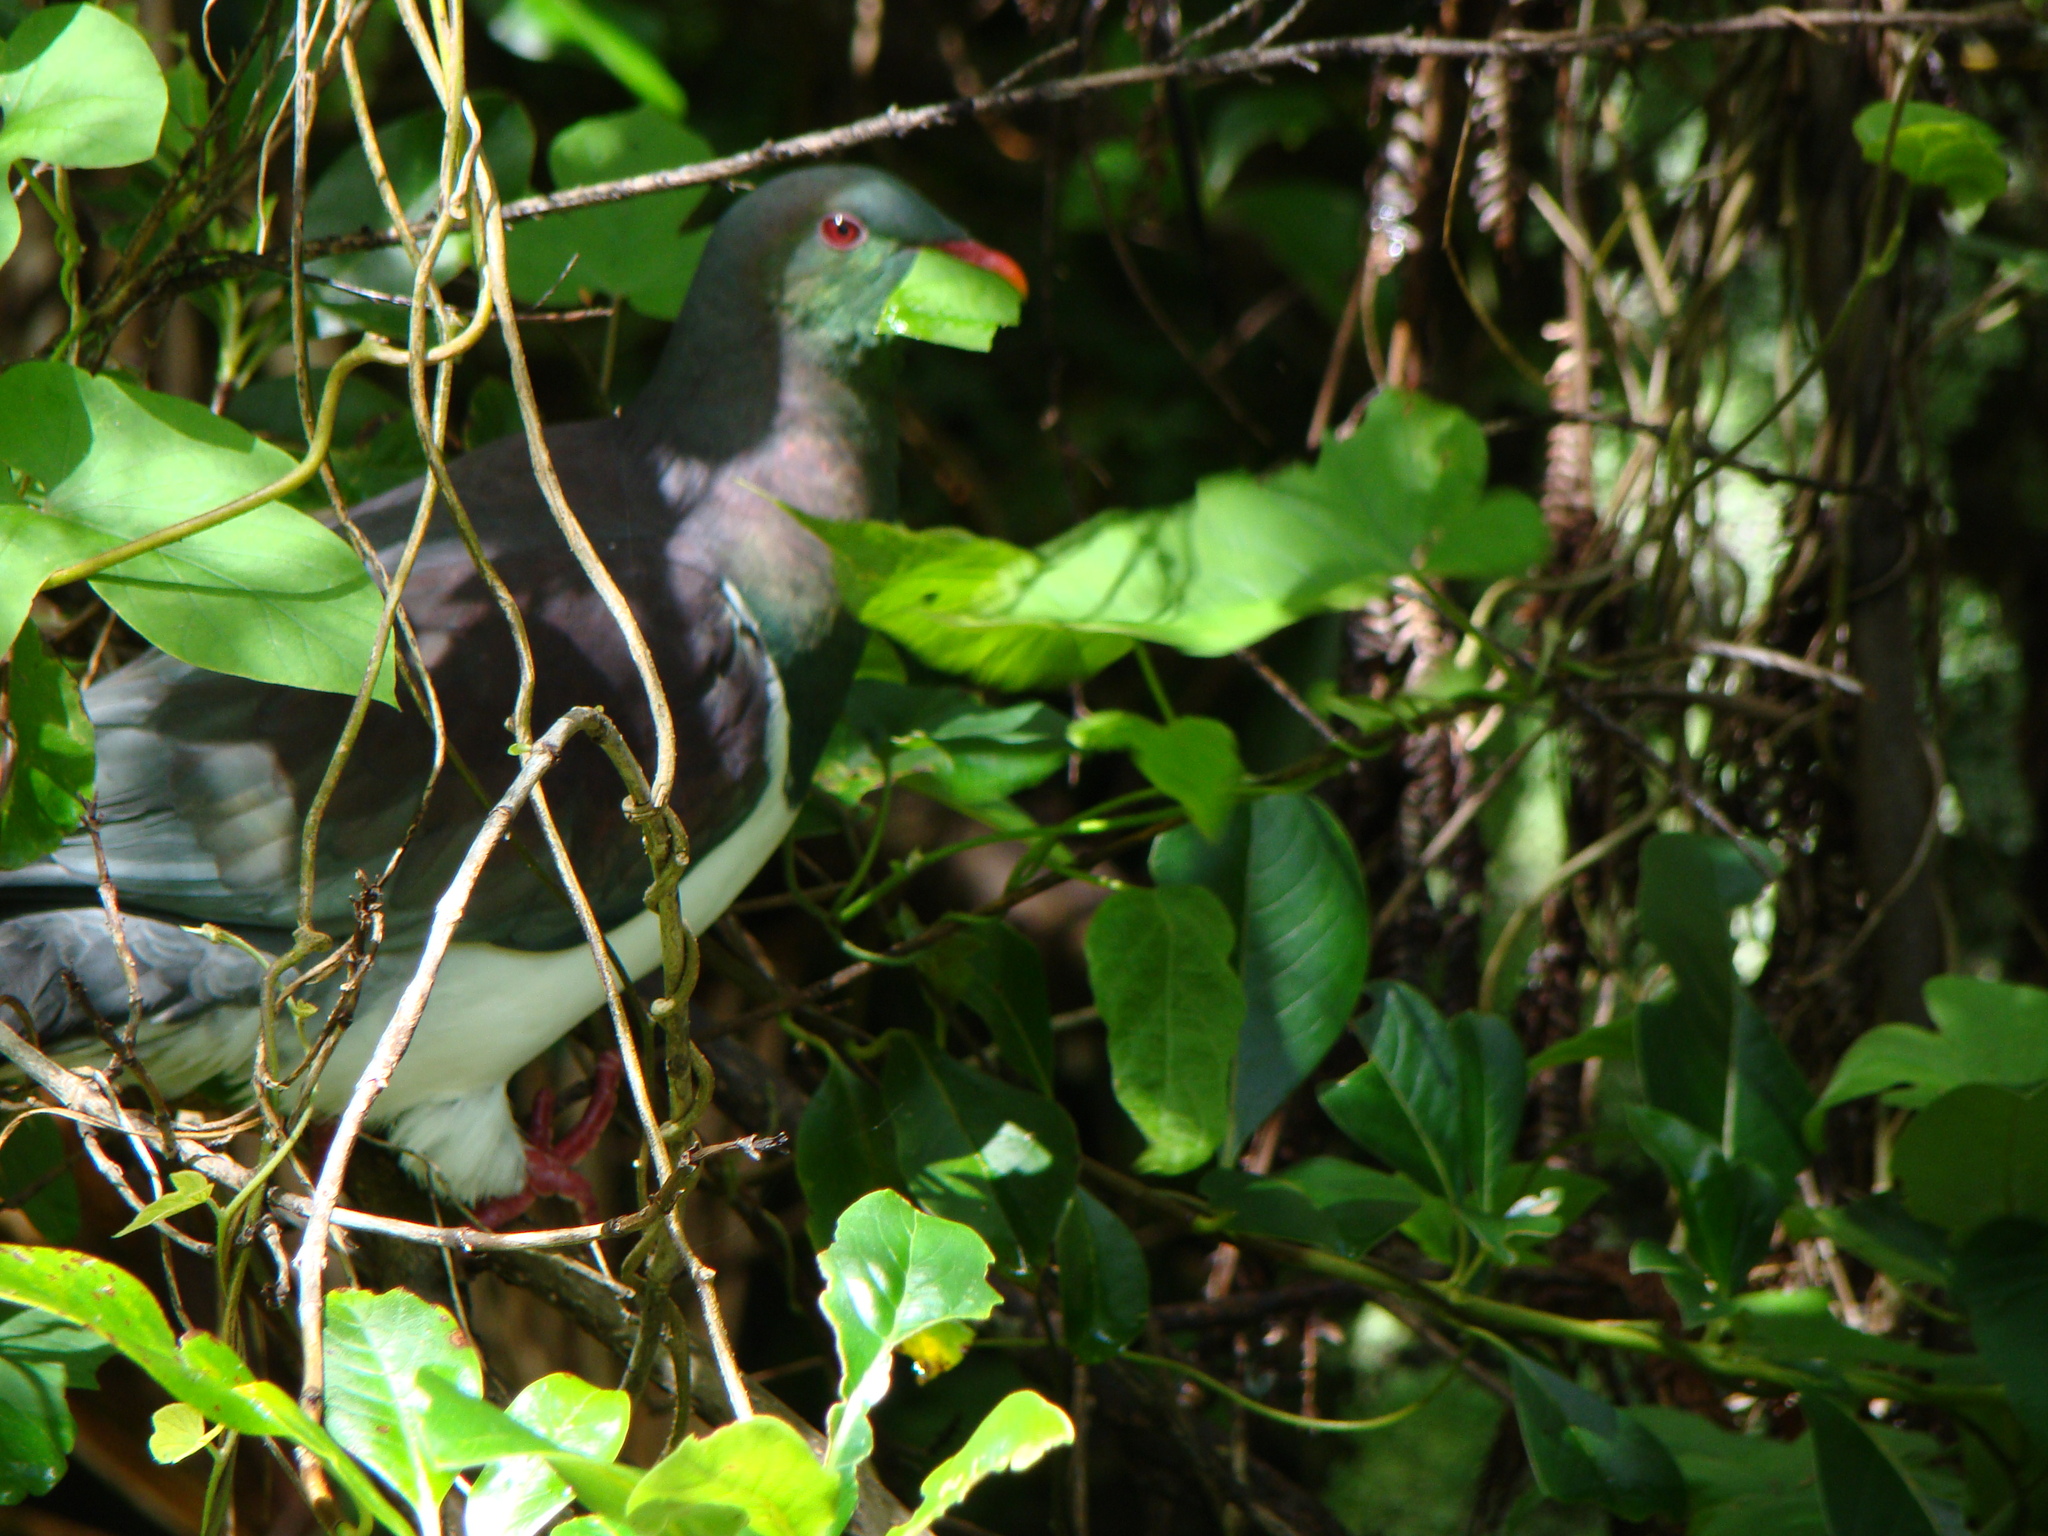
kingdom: Animalia
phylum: Chordata
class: Aves
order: Columbiformes
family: Columbidae
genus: Hemiphaga
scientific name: Hemiphaga novaeseelandiae
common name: New zealand pigeon
